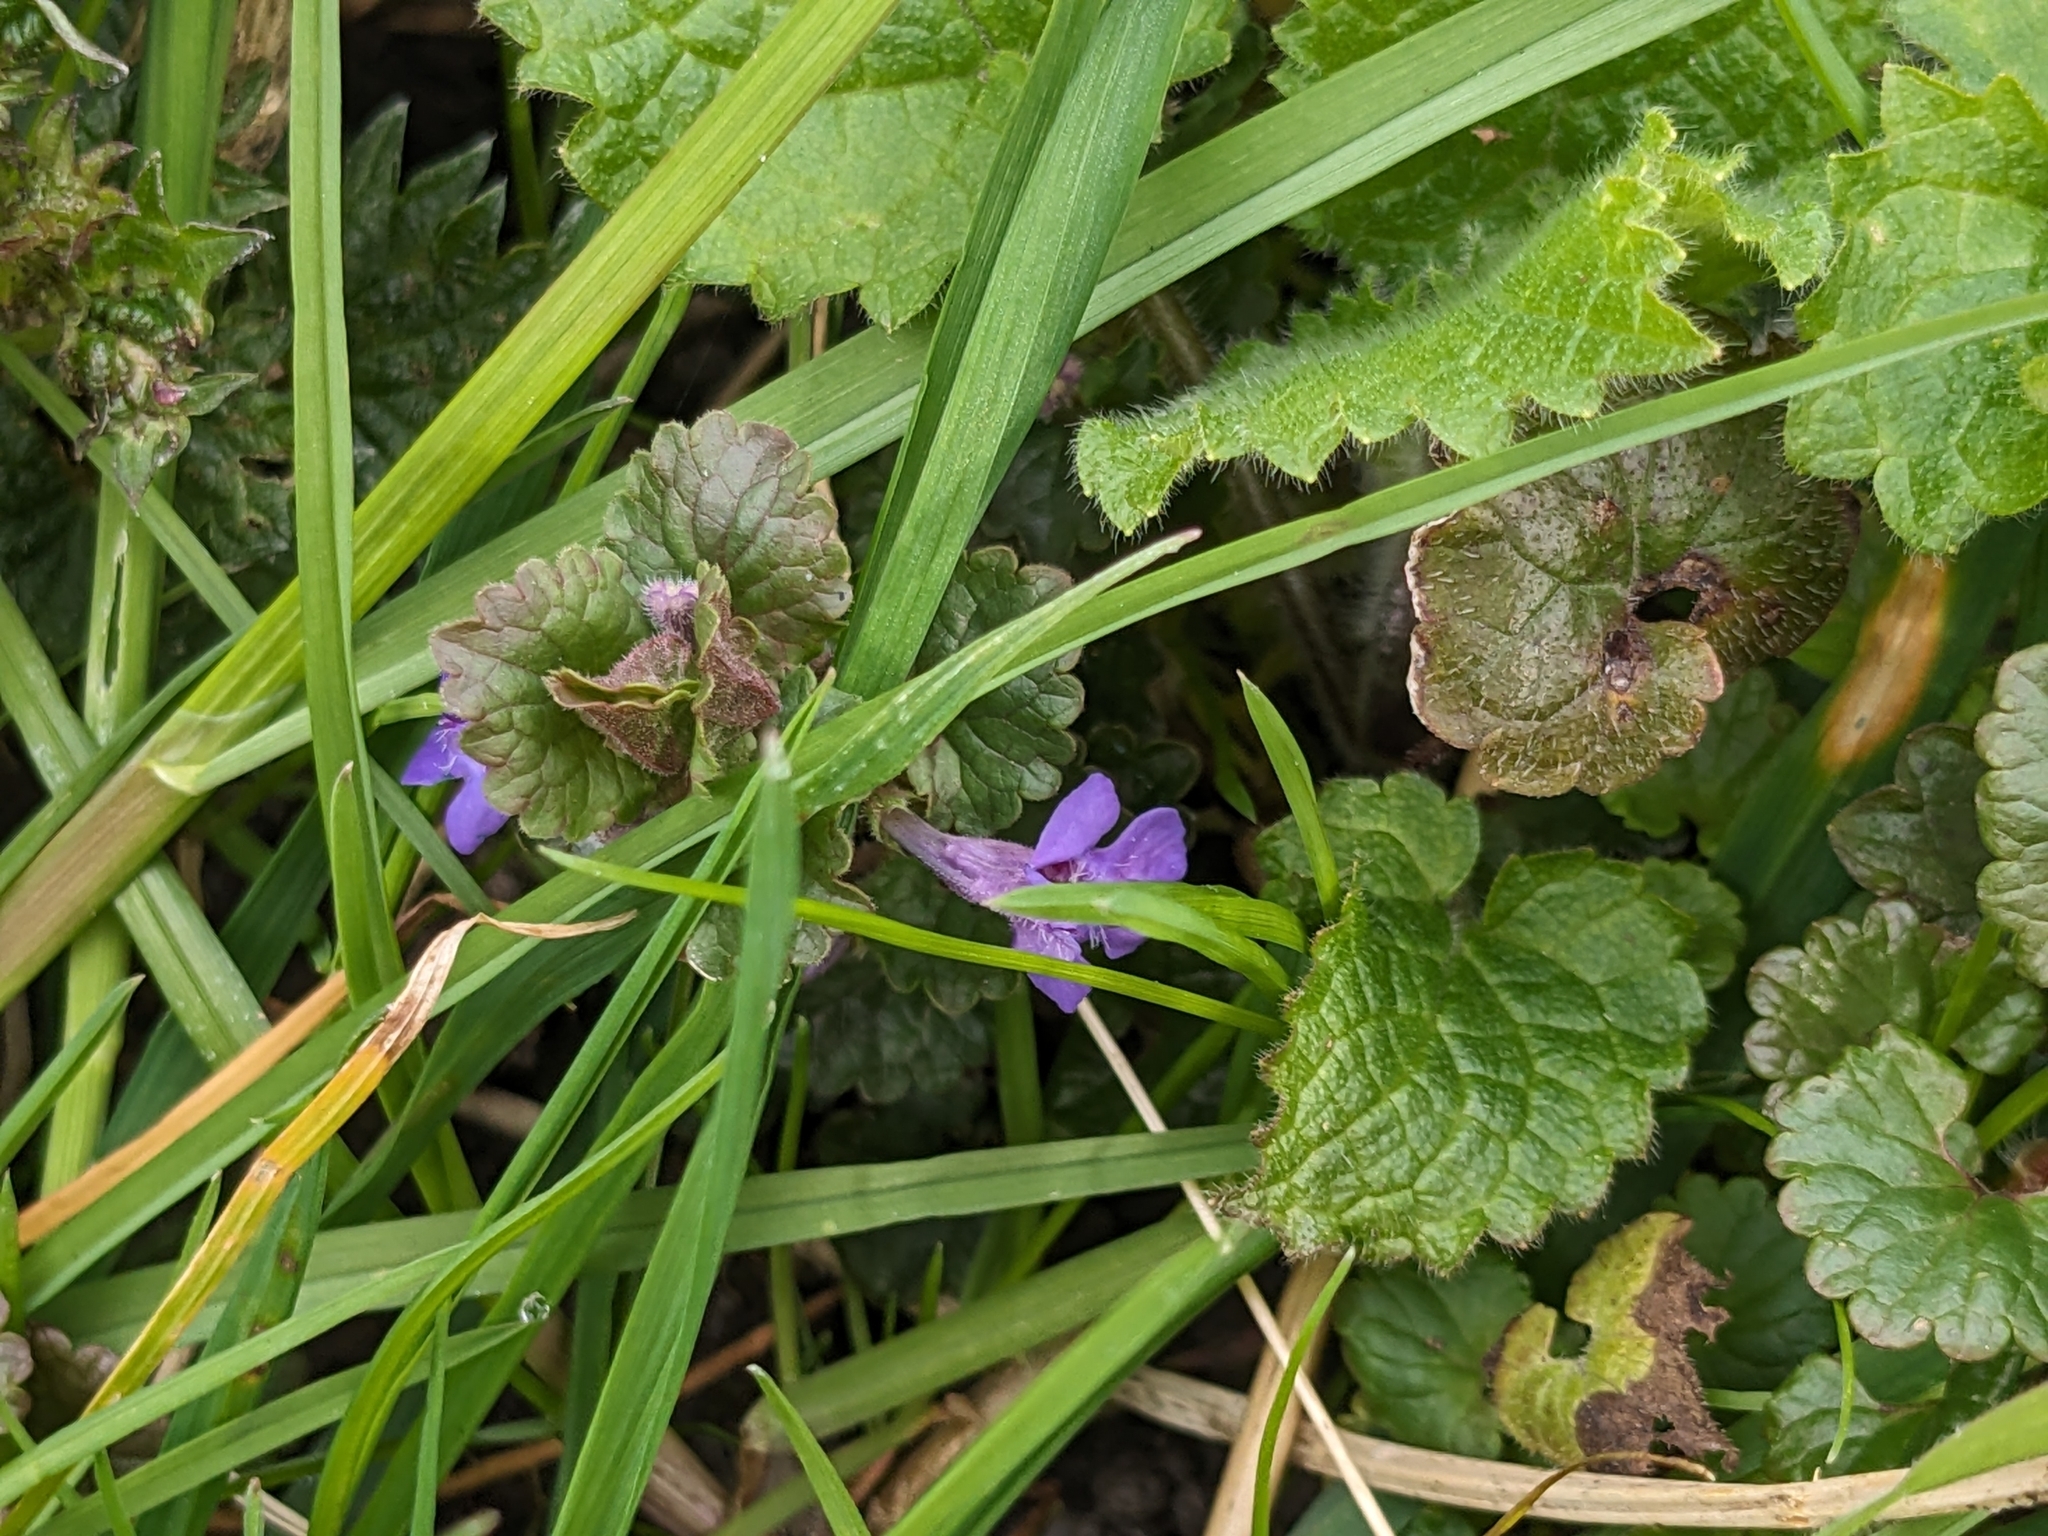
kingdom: Plantae
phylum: Tracheophyta
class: Magnoliopsida
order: Lamiales
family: Lamiaceae
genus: Glechoma
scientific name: Glechoma hederacea
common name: Ground ivy
